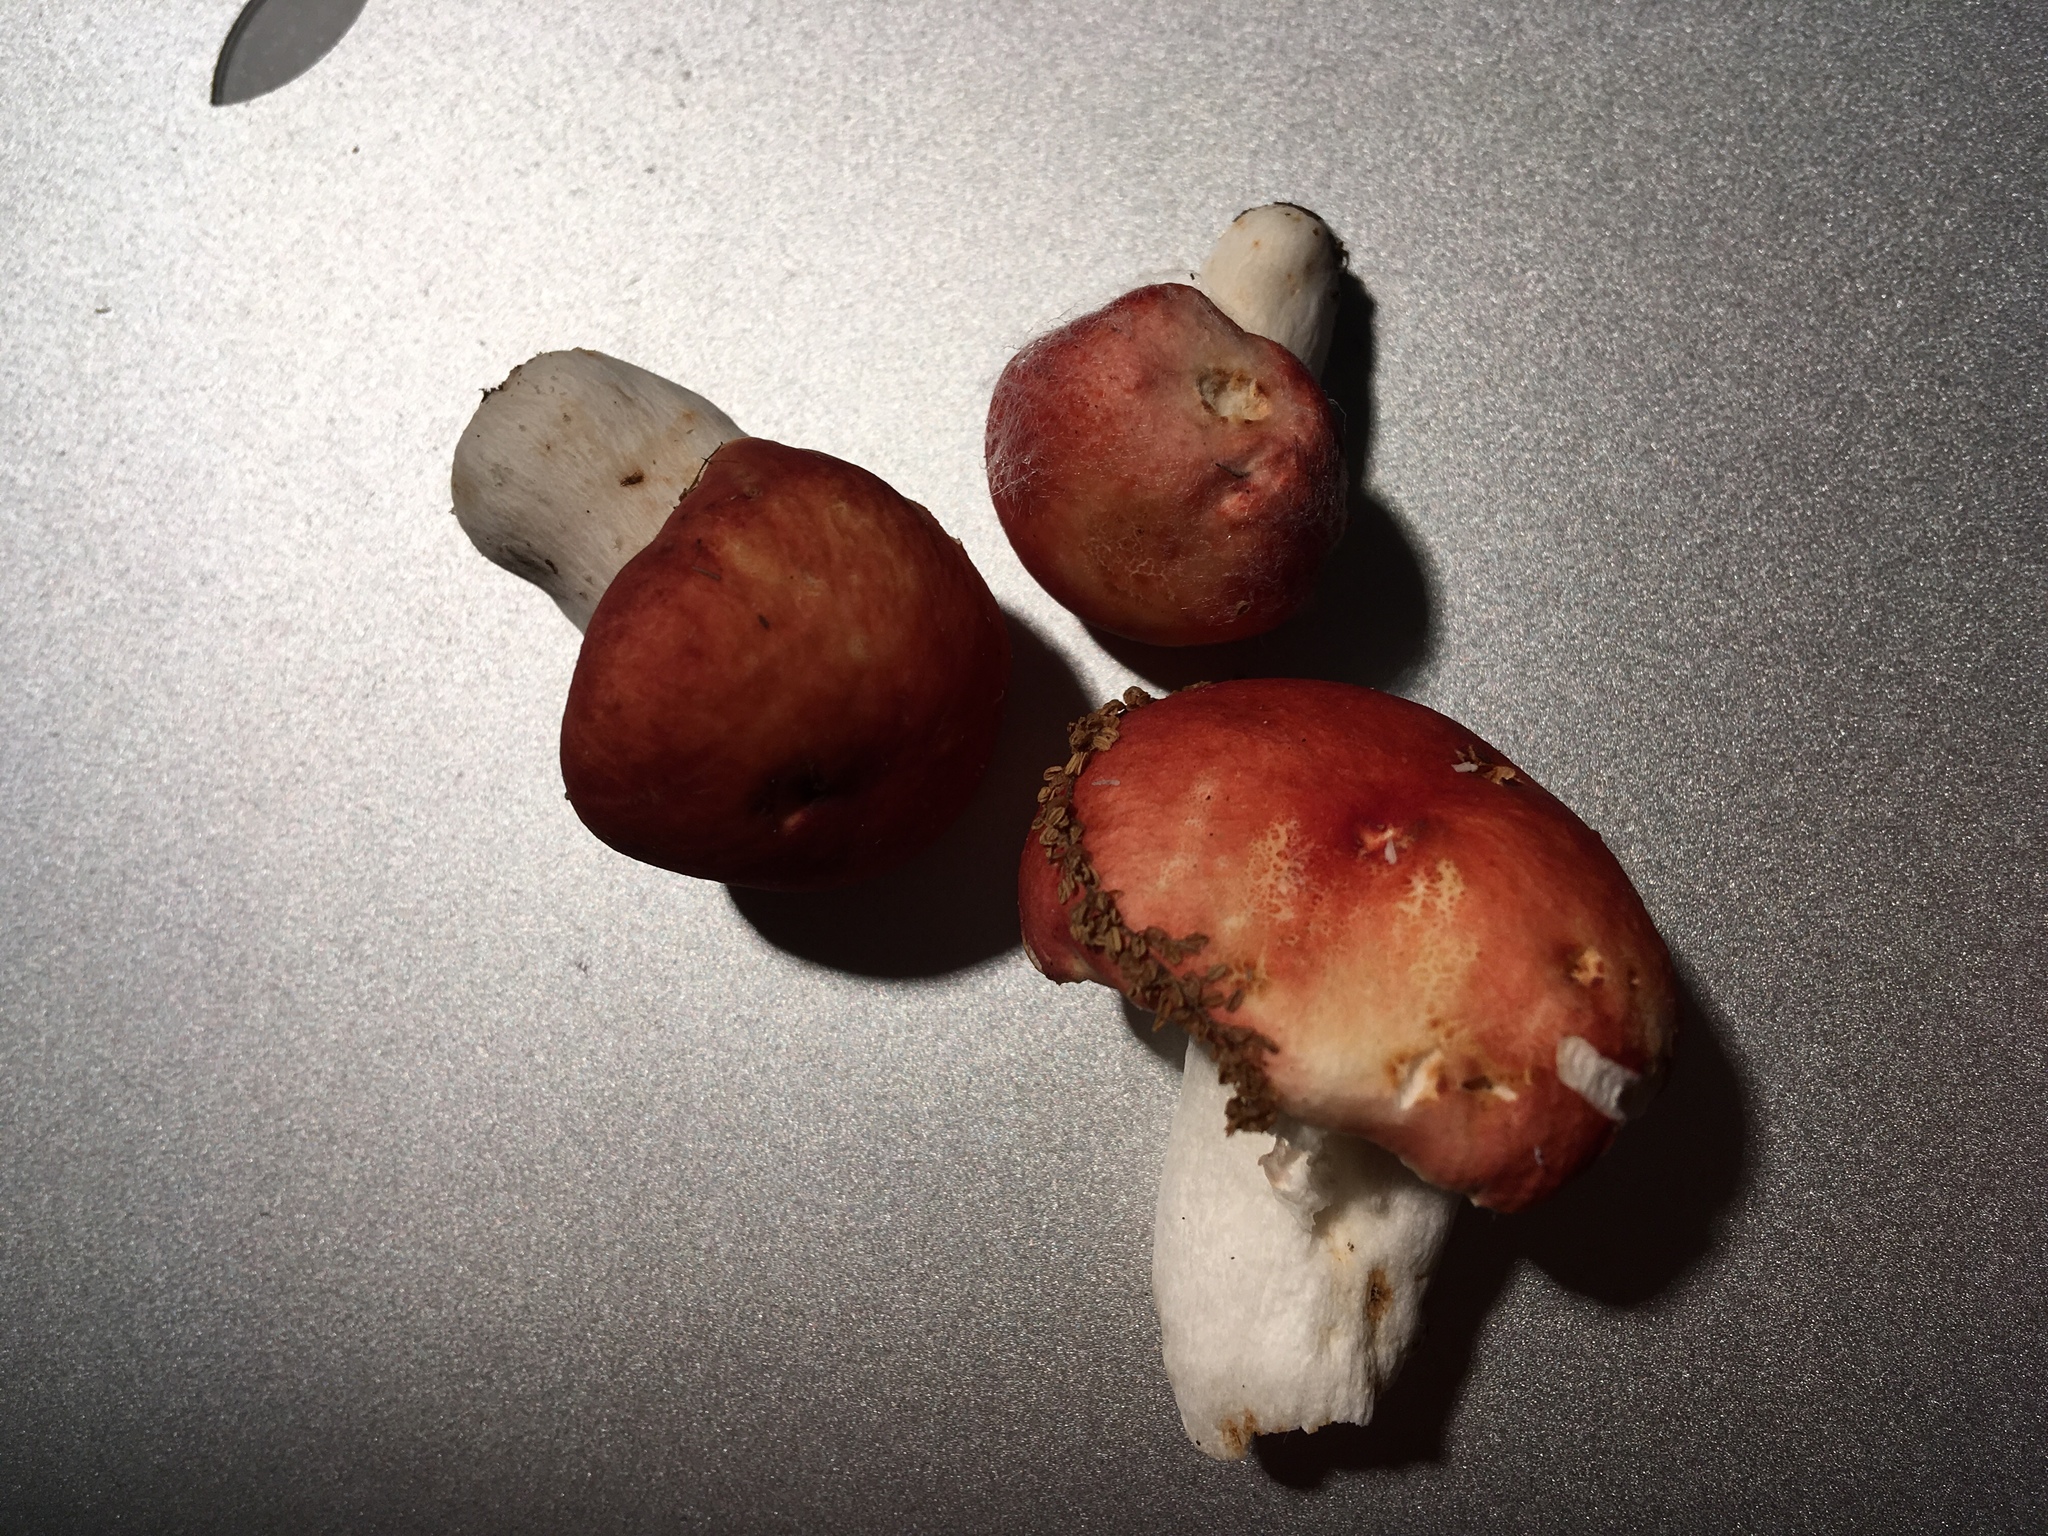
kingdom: Fungi
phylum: Basidiomycota
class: Agaricomycetes
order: Russulales
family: Russulaceae
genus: Russula
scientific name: Russula pulchra
